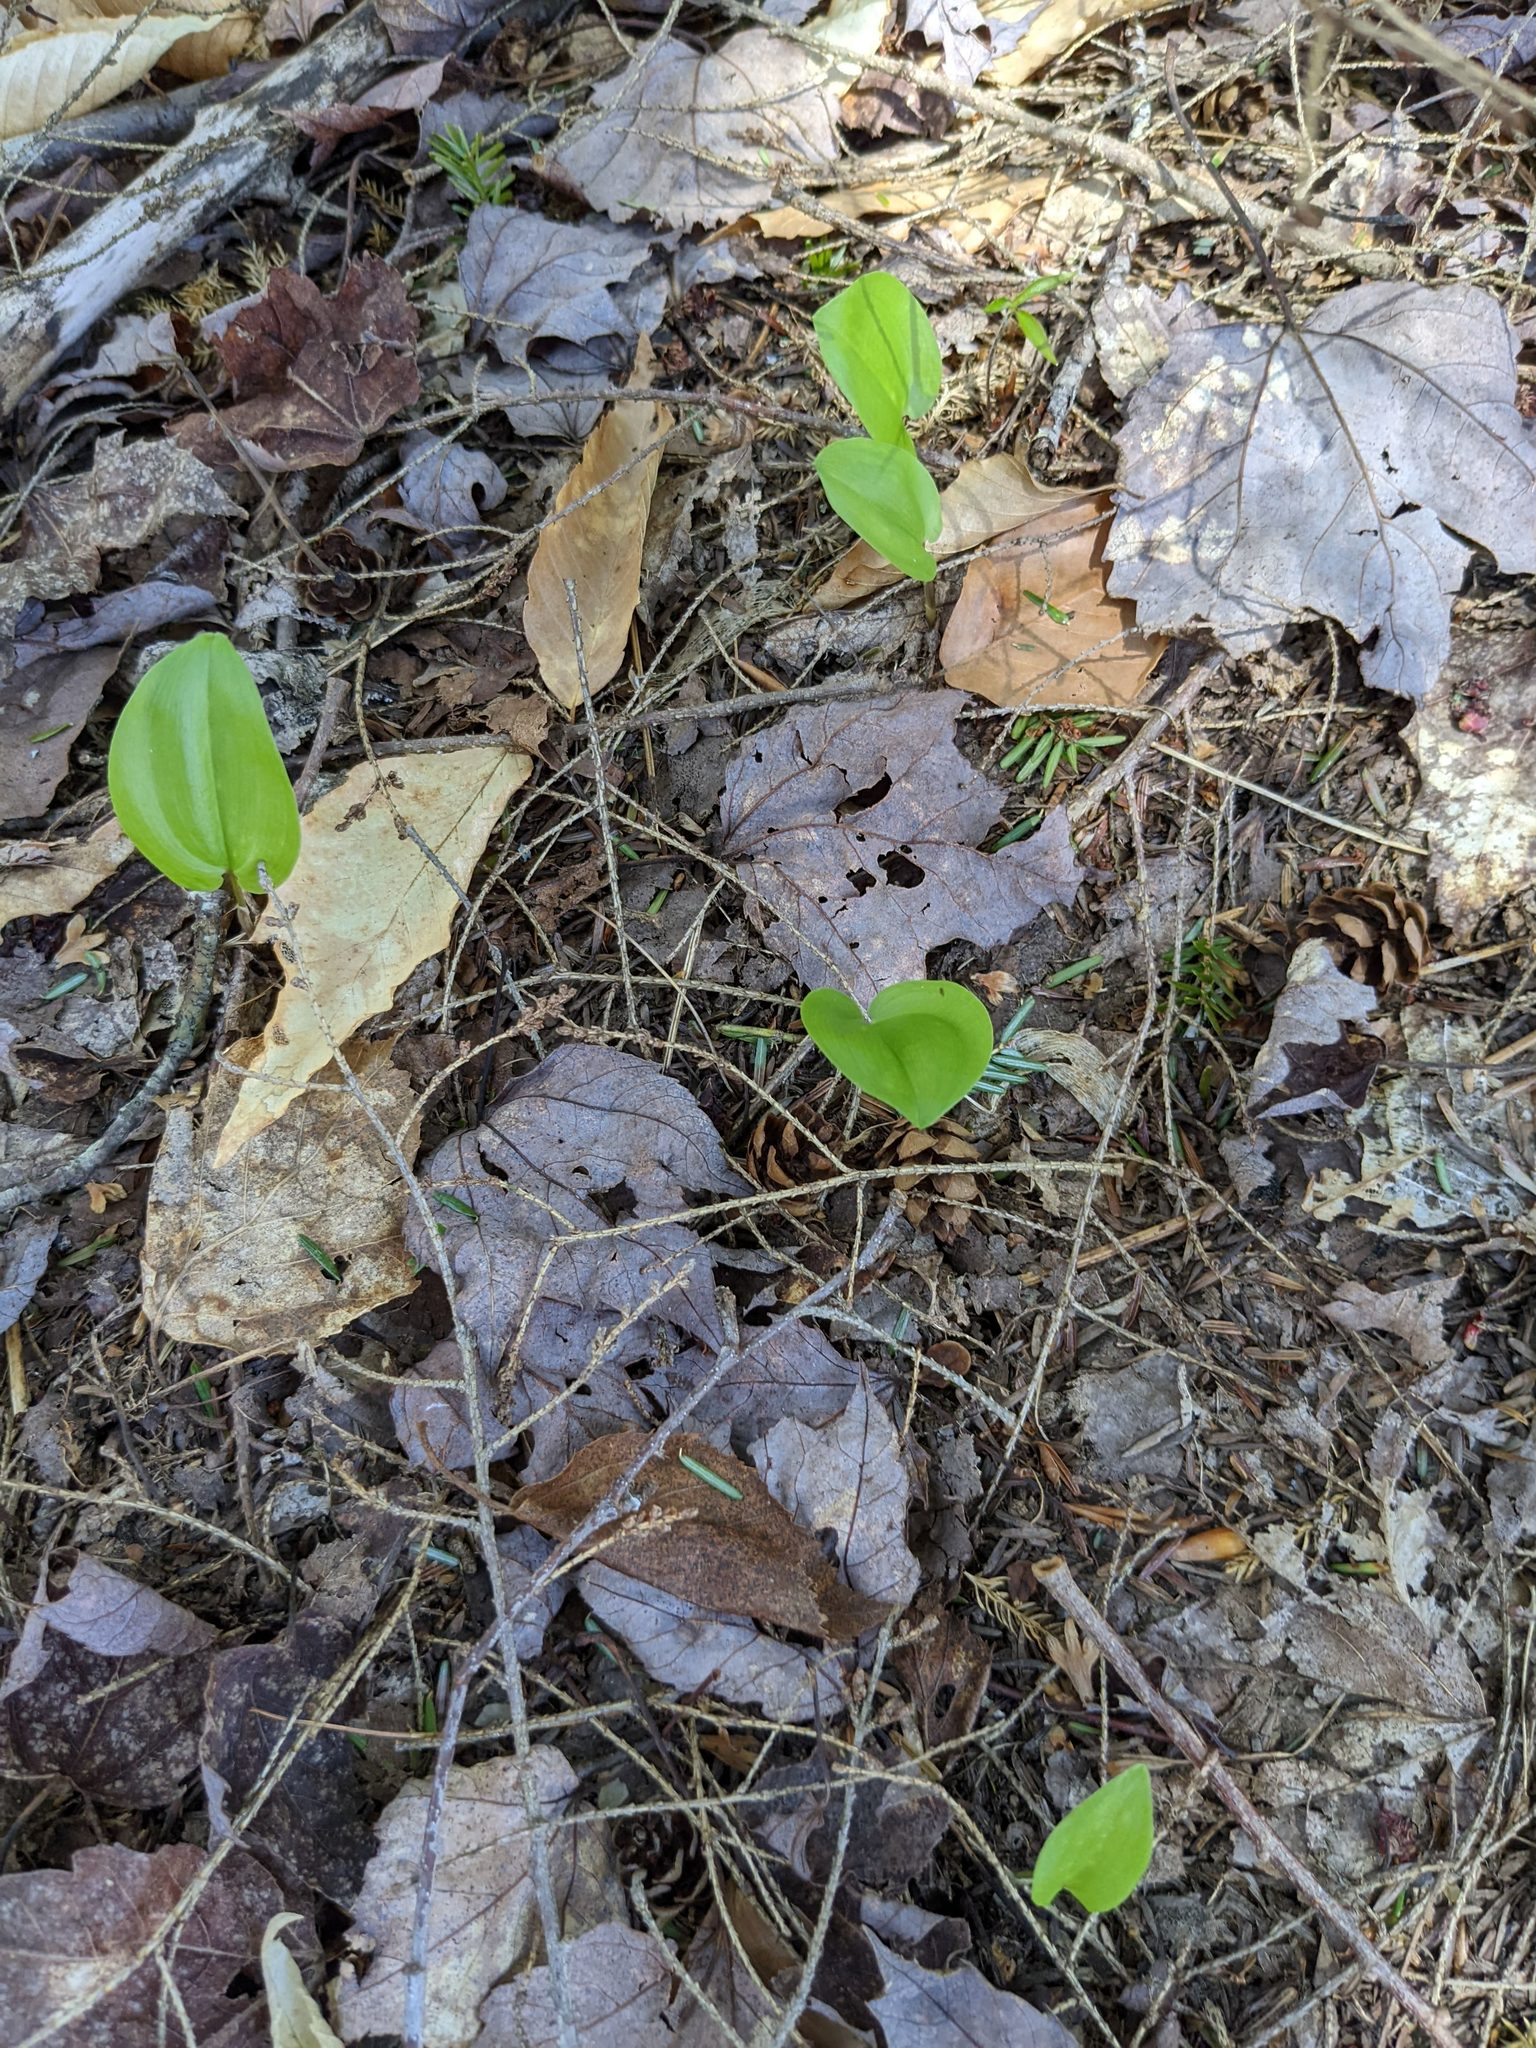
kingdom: Plantae
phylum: Tracheophyta
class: Liliopsida
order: Asparagales
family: Asparagaceae
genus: Maianthemum
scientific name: Maianthemum canadense
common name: False lily-of-the-valley
